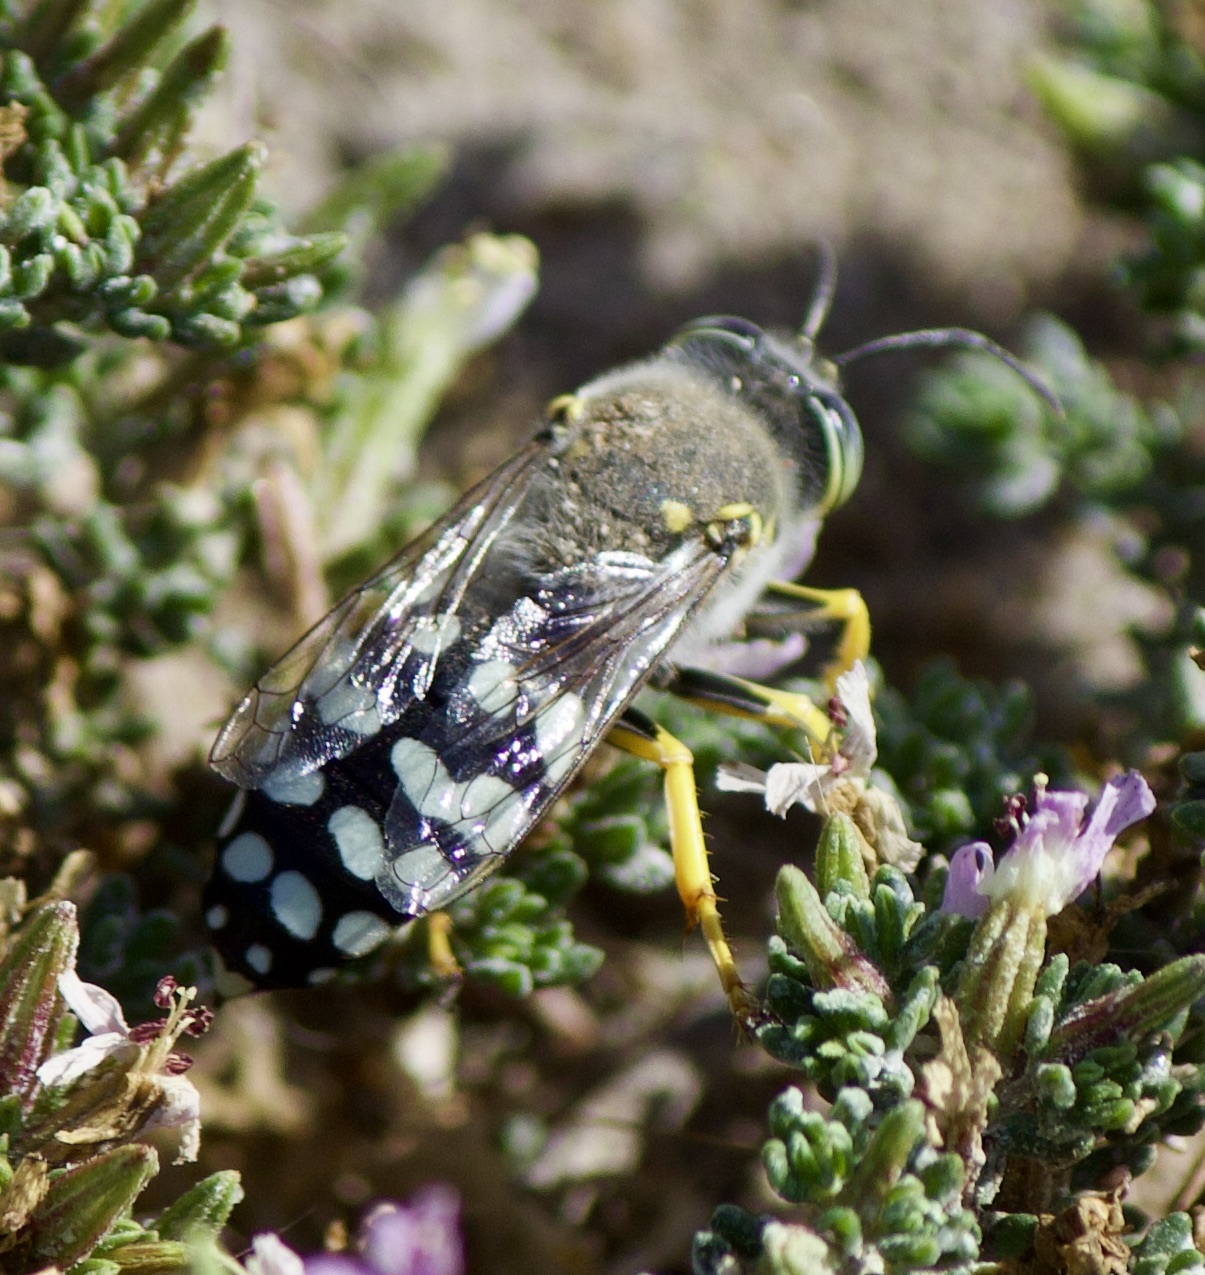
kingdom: Animalia
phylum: Arthropoda
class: Insecta
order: Hymenoptera
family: Crabronidae
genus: Zyzzyx
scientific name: Zyzzyx chilensis
